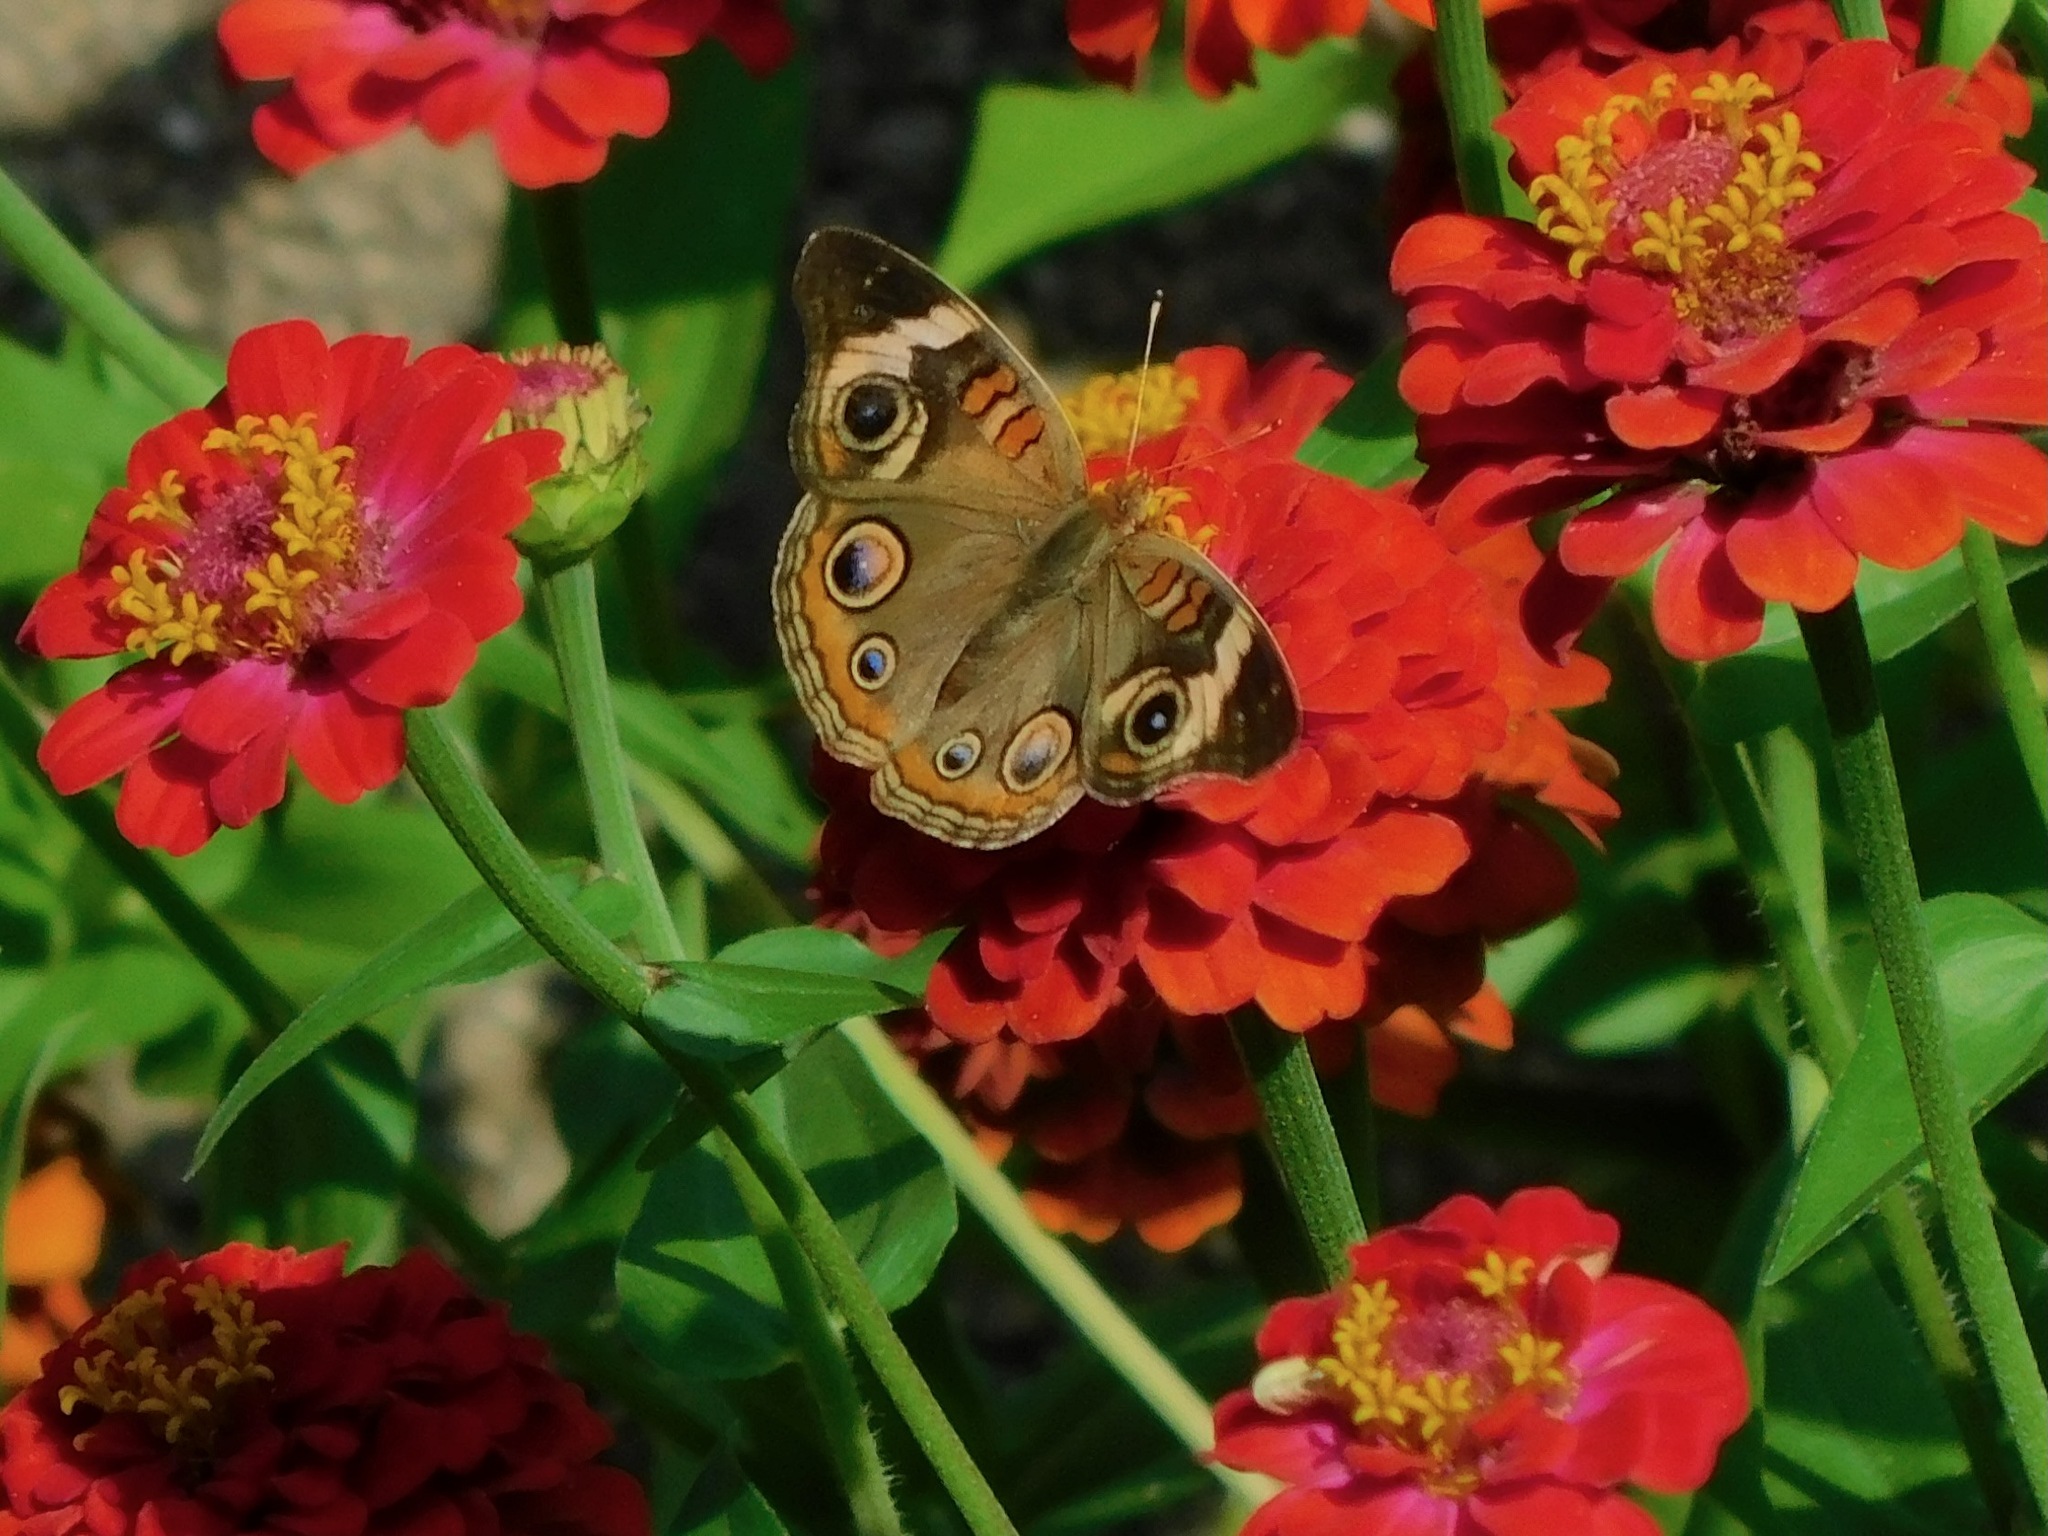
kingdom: Animalia
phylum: Arthropoda
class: Insecta
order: Lepidoptera
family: Nymphalidae
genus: Junonia
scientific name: Junonia coenia
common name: Common buckeye
